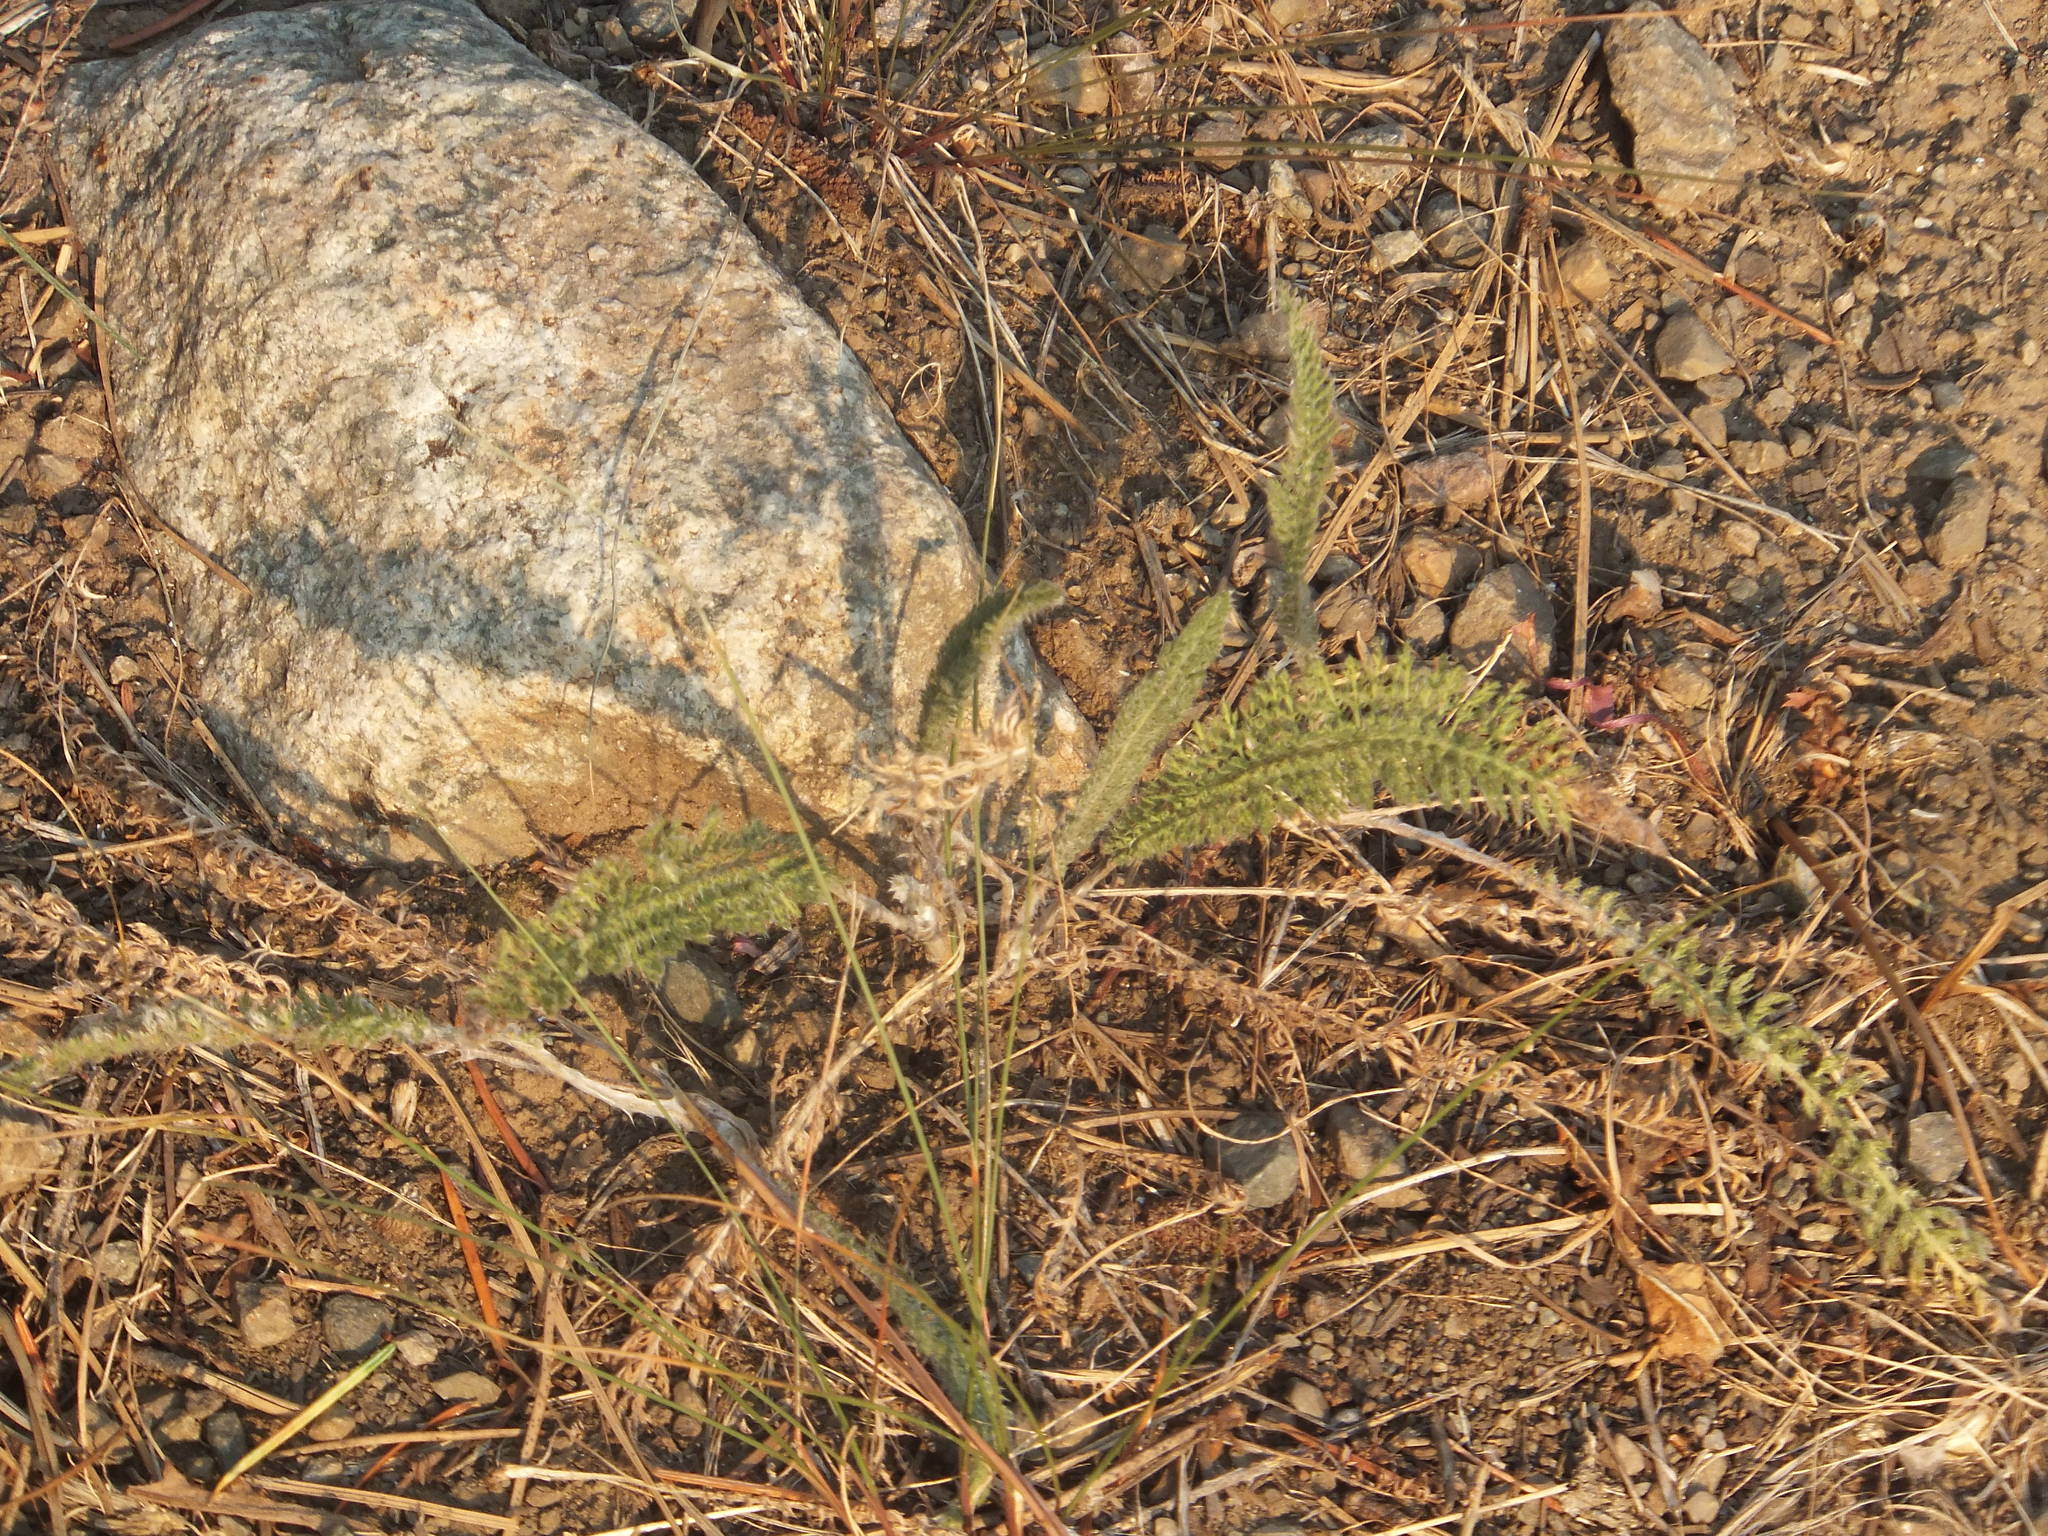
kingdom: Plantae
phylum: Tracheophyta
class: Magnoliopsida
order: Asterales
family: Asteraceae
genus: Achillea
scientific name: Achillea millefolium
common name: Yarrow
